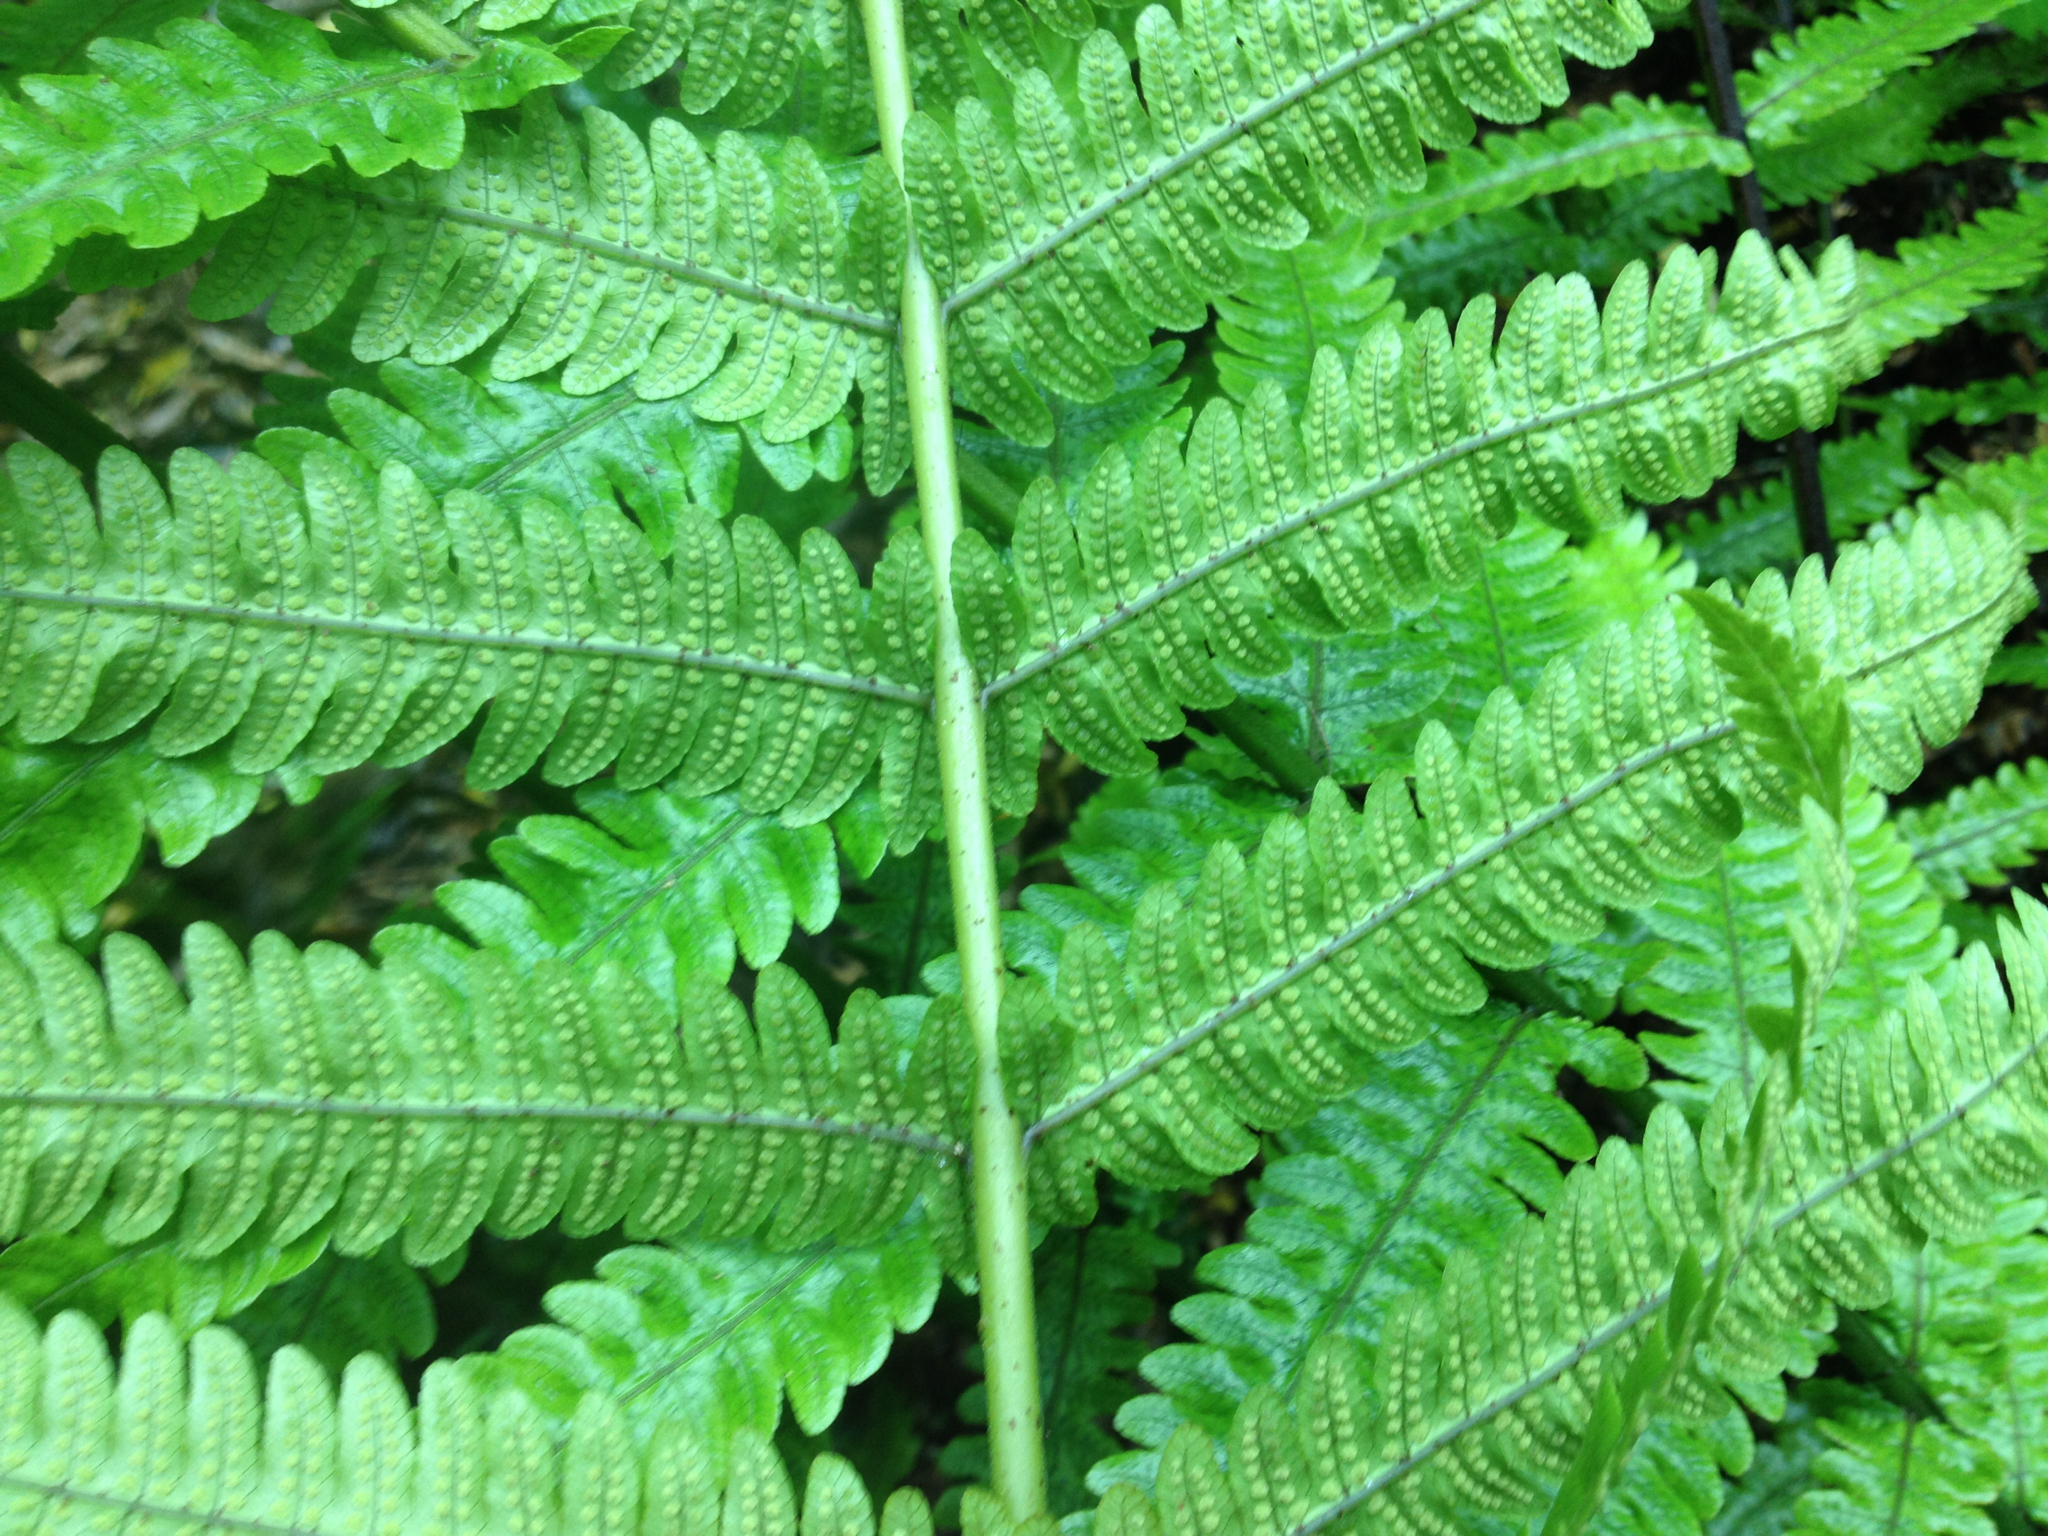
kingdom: Plantae
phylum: Tracheophyta
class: Polypodiopsida
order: Polypodiales
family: Thelypteridaceae
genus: Pakau
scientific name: Pakau pennigera
